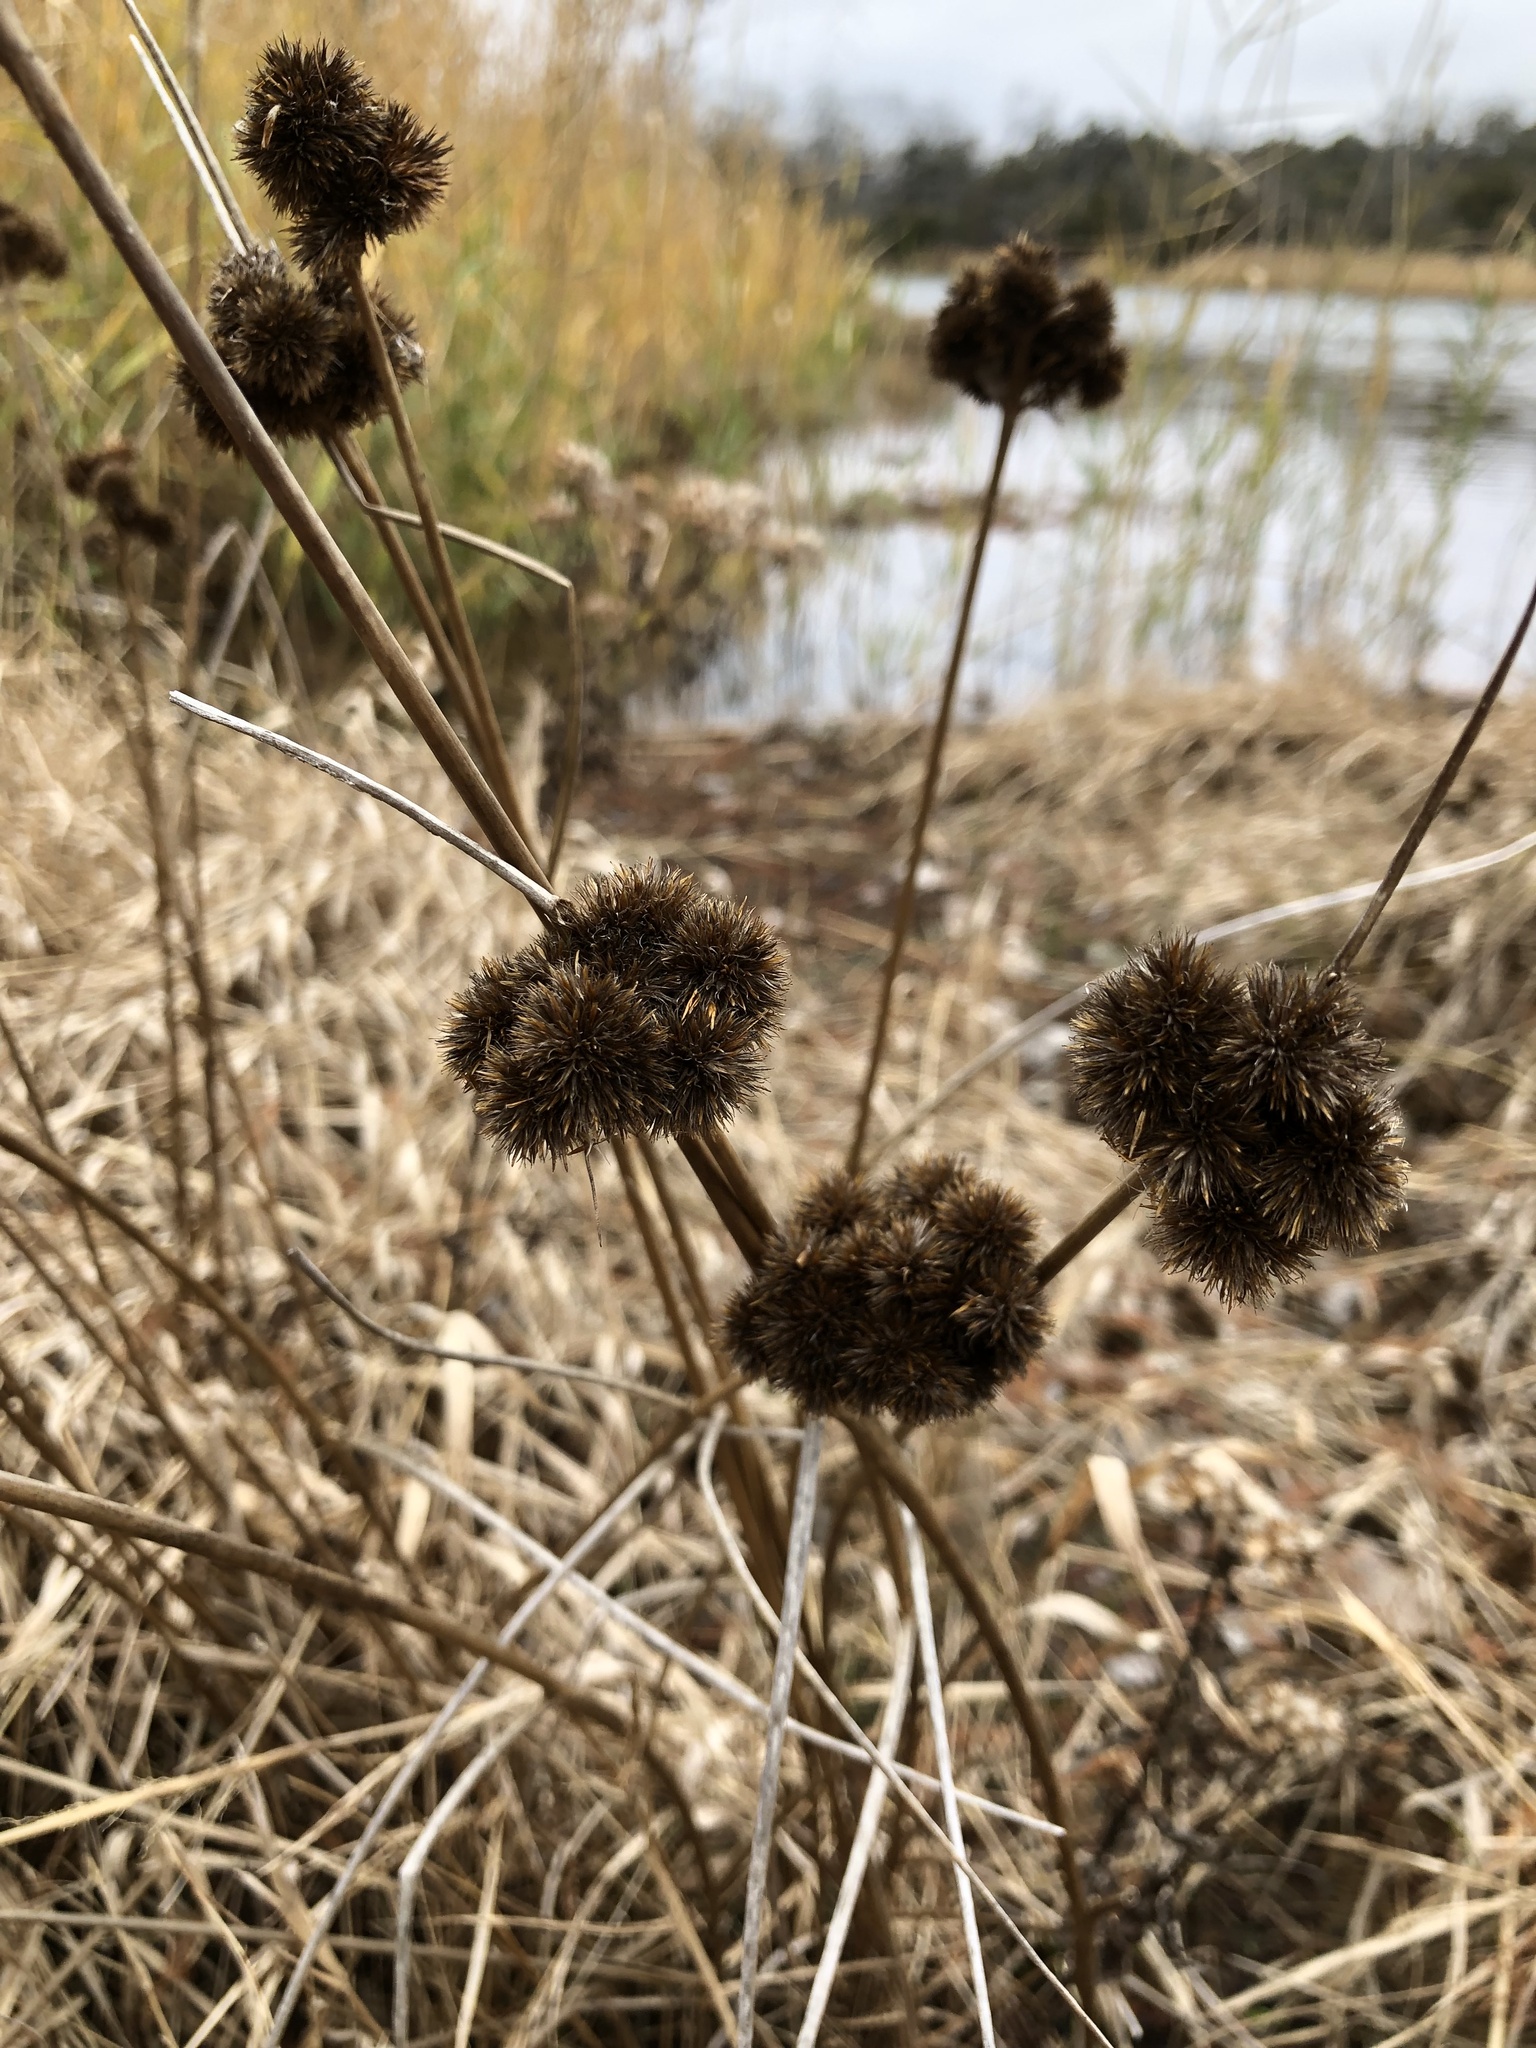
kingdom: Plantae
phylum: Tracheophyta
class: Liliopsida
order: Poales
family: Juncaceae
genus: Juncus
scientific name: Juncus torreyi
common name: Torrey's rush
